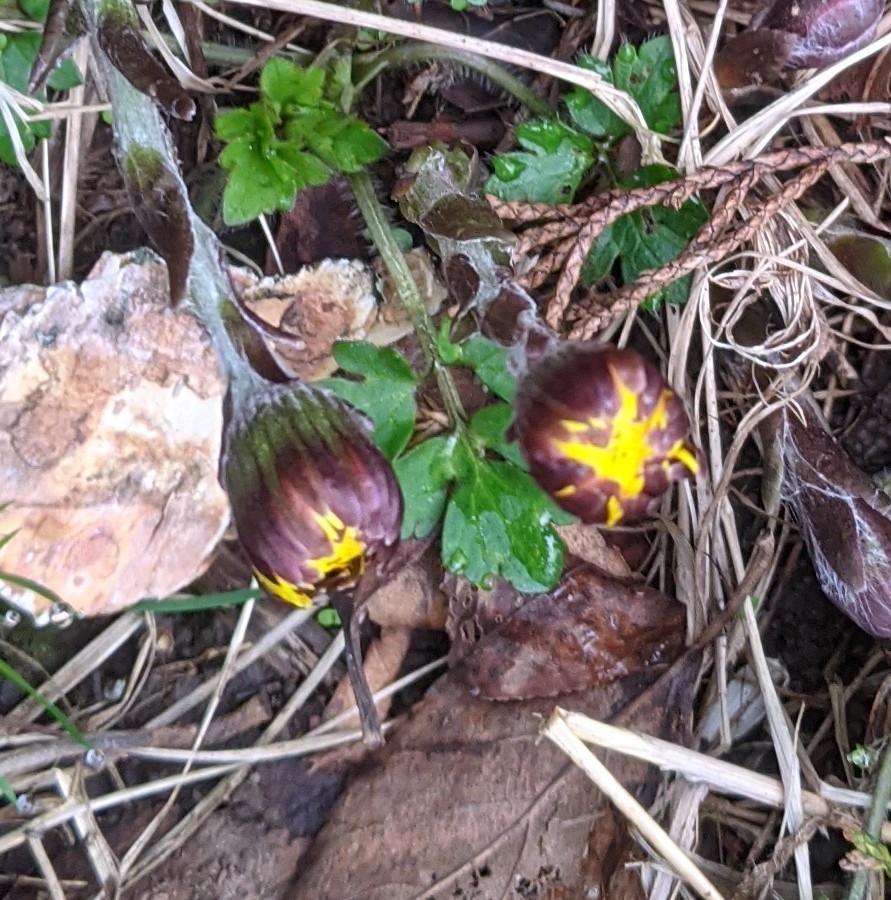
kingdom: Plantae
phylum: Tracheophyta
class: Magnoliopsida
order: Asterales
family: Asteraceae
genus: Tussilago
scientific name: Tussilago farfara
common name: Coltsfoot
